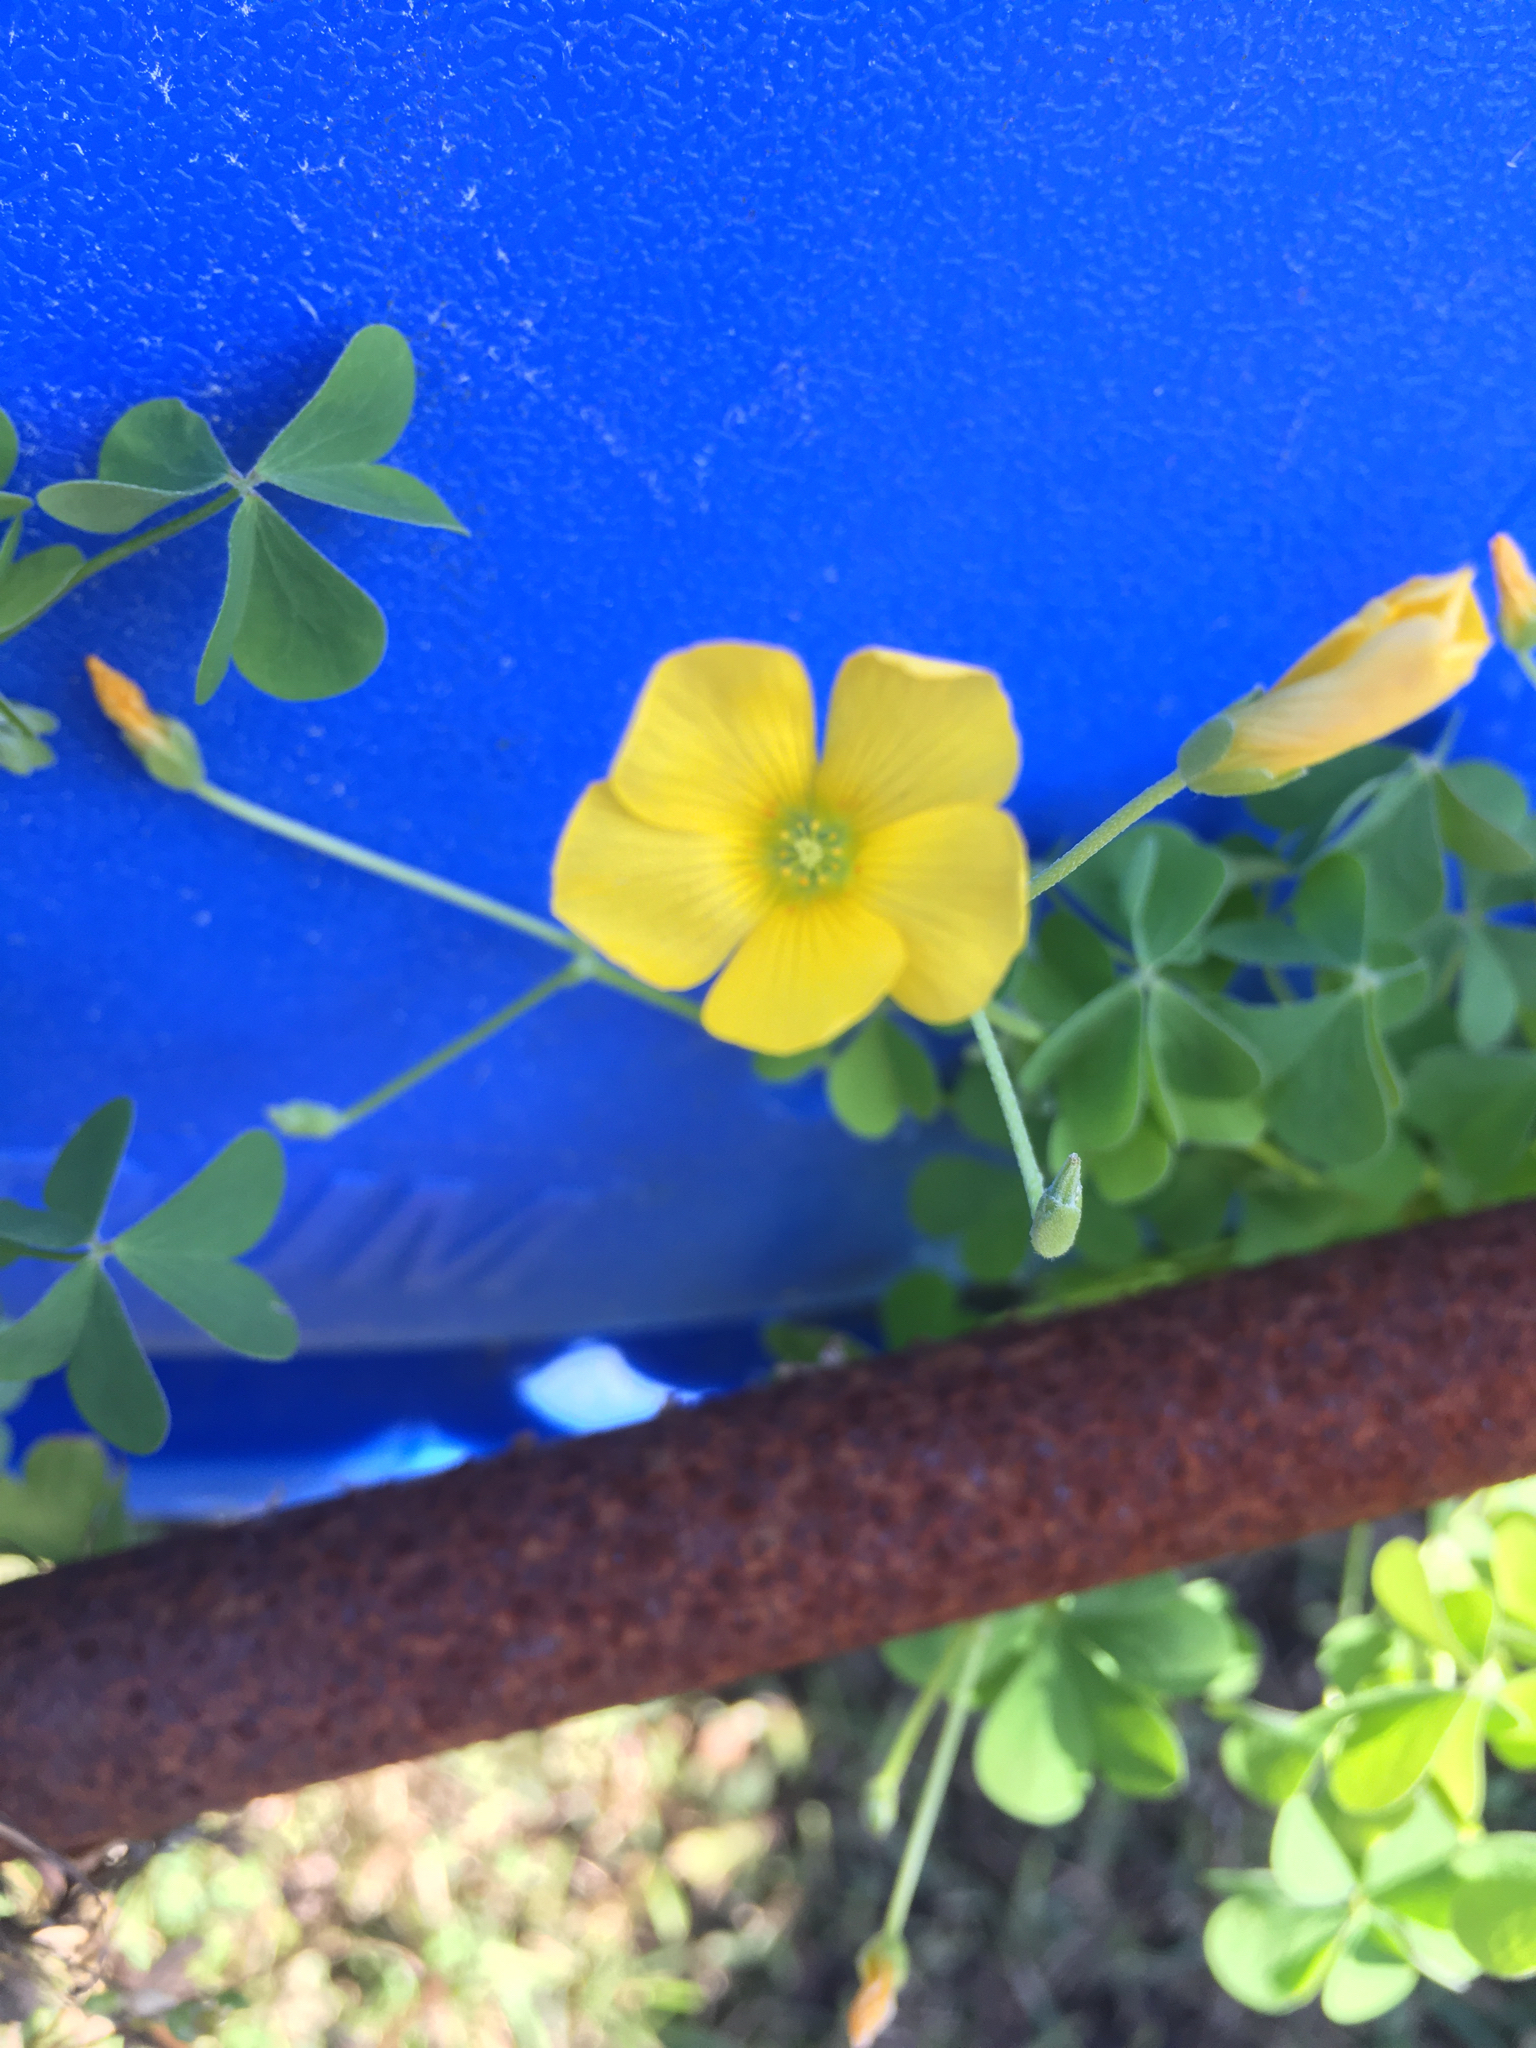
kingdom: Plantae
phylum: Tracheophyta
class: Magnoliopsida
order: Oxalidales
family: Oxalidaceae
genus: Oxalis
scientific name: Oxalis dillenii
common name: Sussex yellow-sorrel
